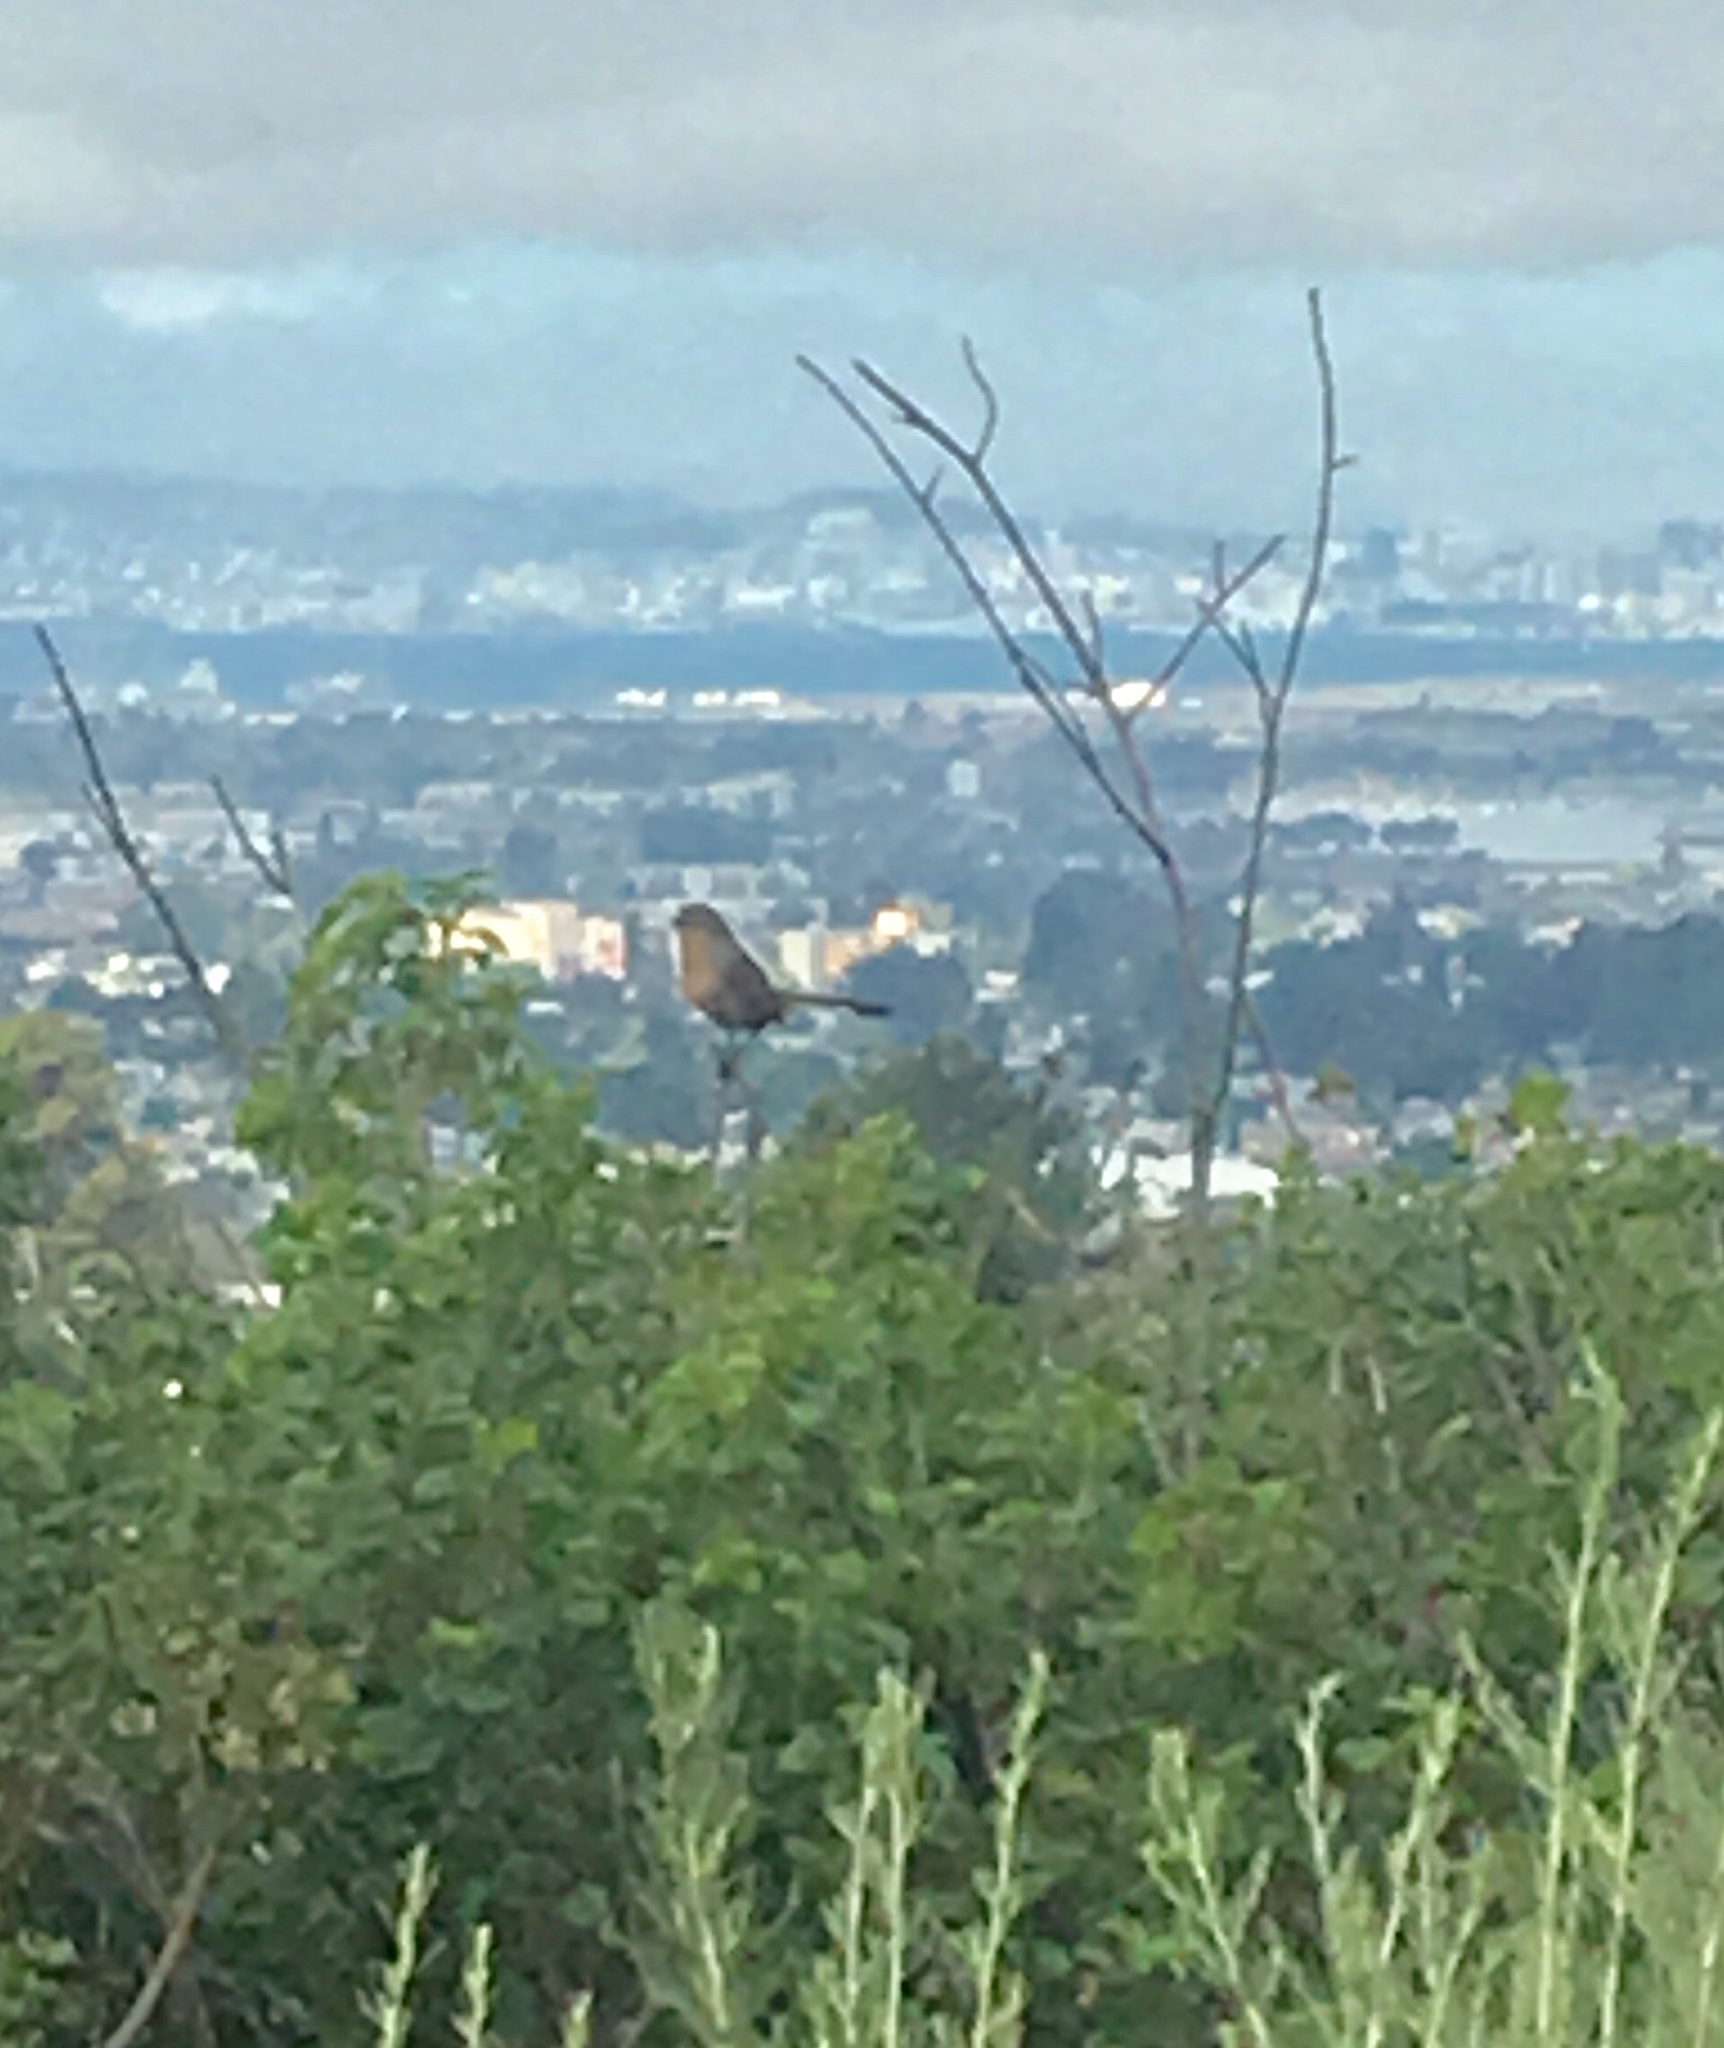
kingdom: Animalia
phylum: Chordata
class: Aves
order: Passeriformes
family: Passerellidae
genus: Melozone
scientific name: Melozone crissalis
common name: California towhee
